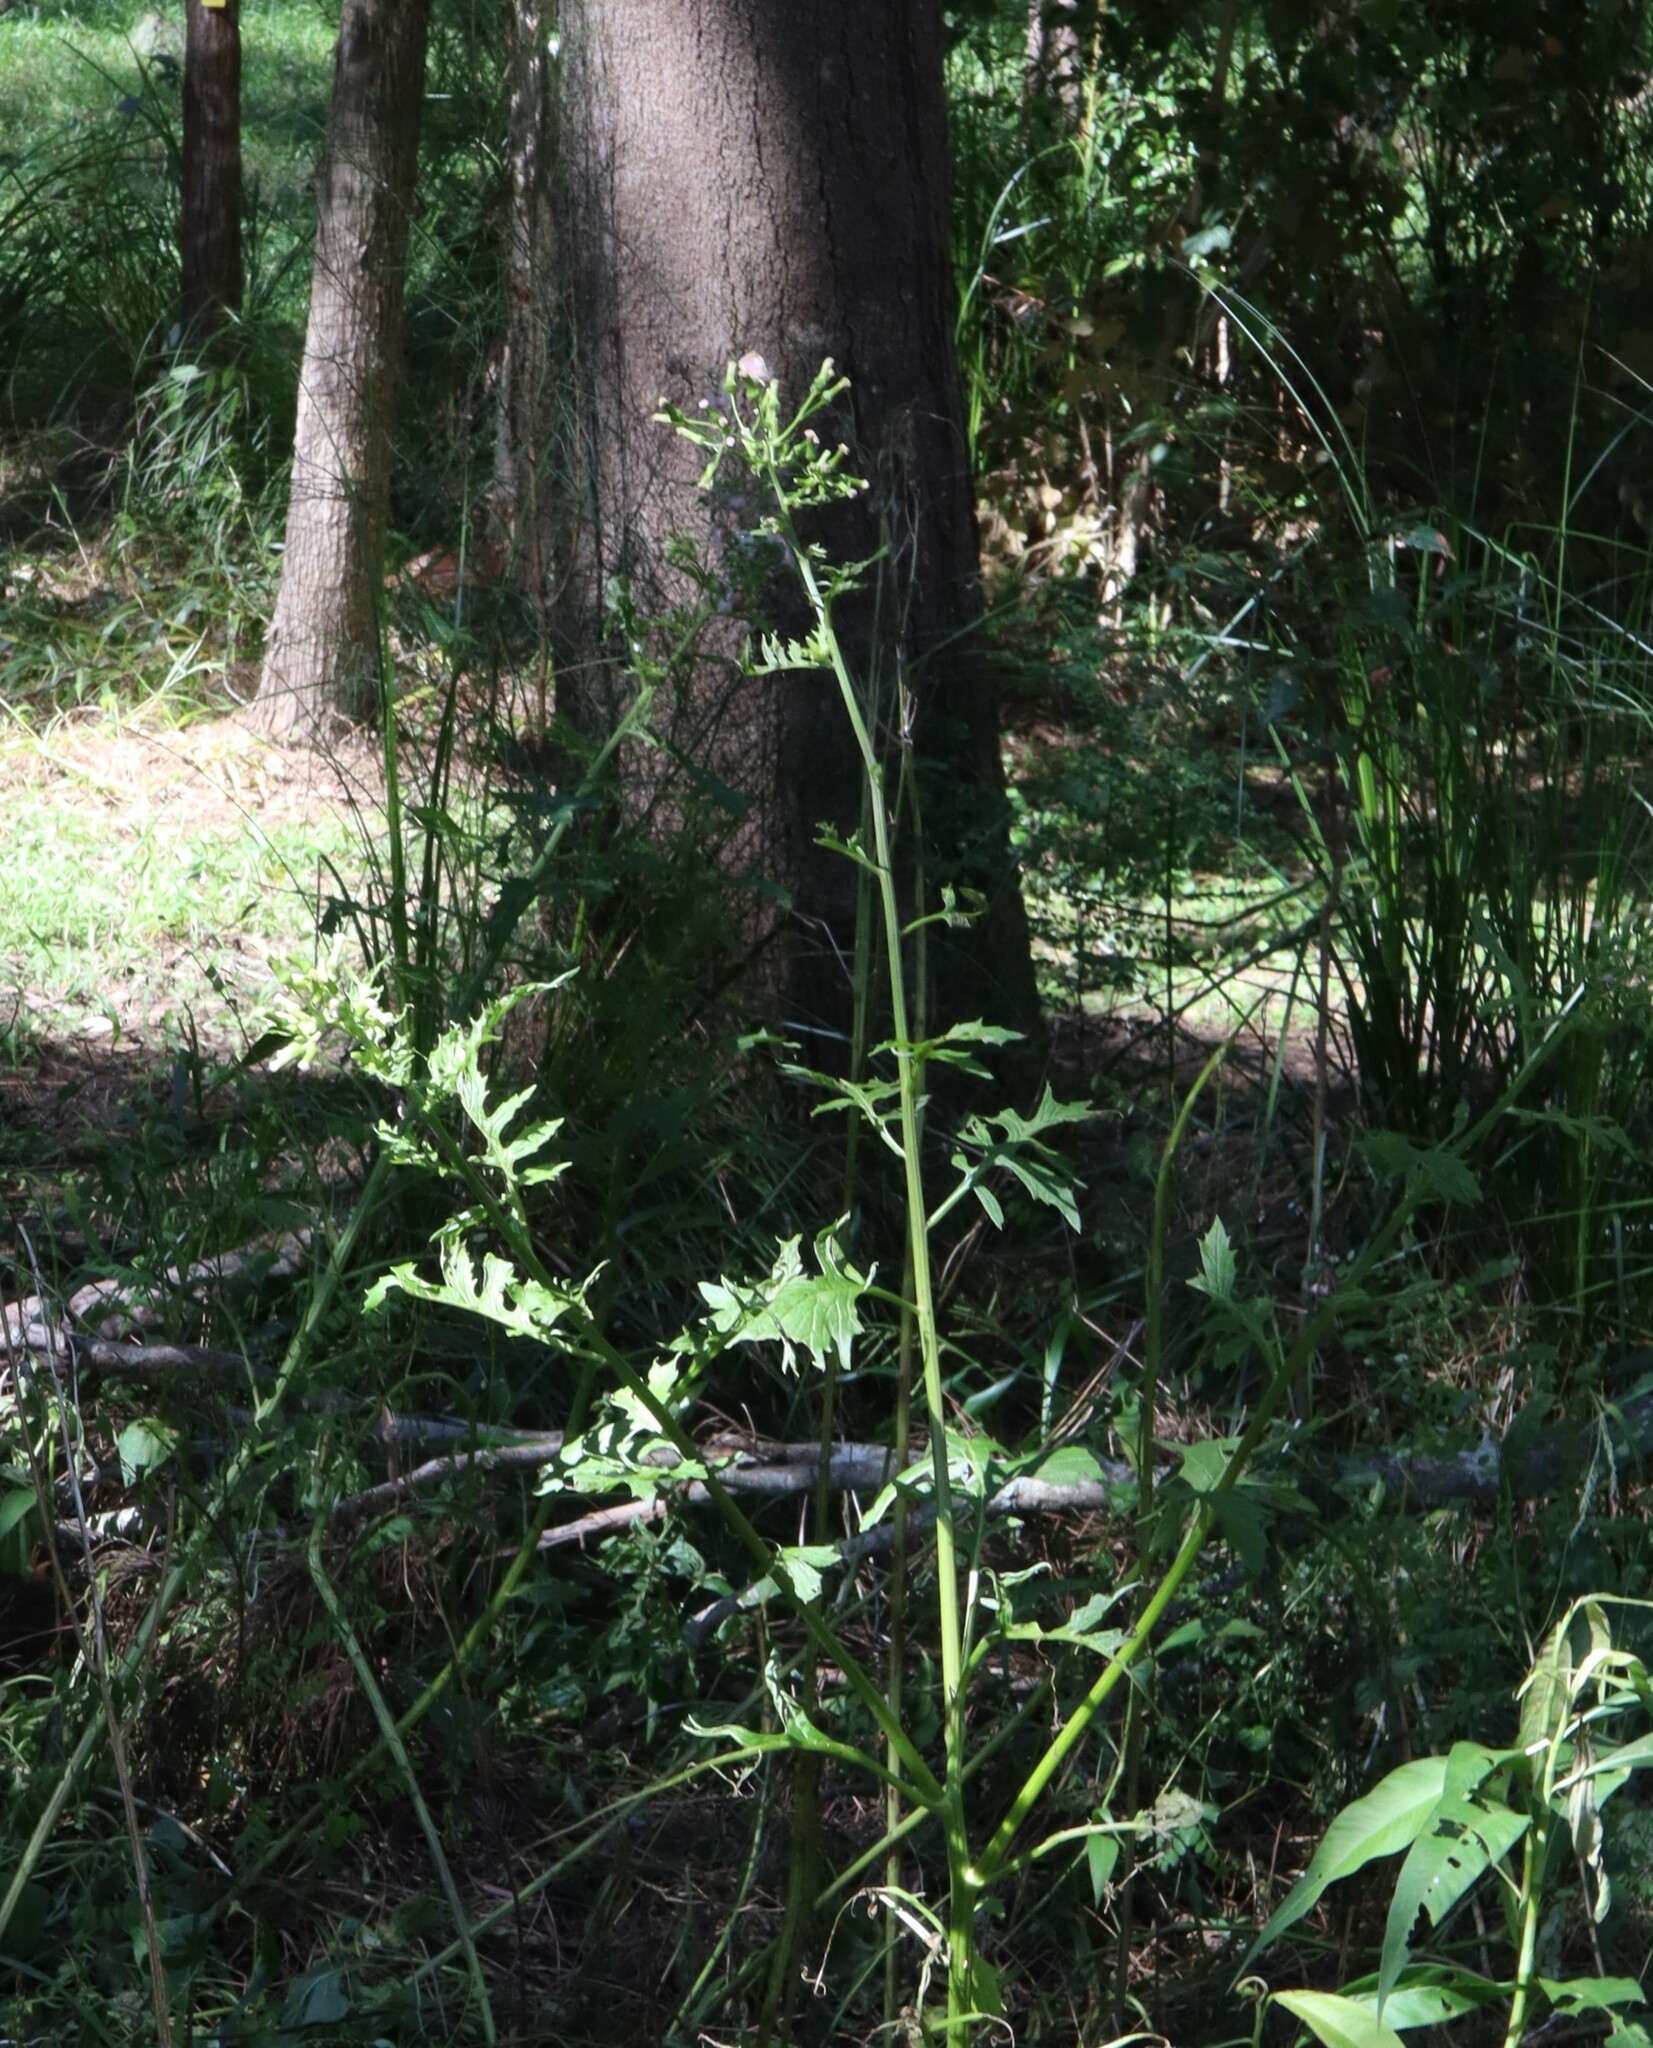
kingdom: Plantae
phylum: Tracheophyta
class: Magnoliopsida
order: Asterales
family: Asteraceae
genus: Erechtites
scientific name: Erechtites valerianifolius
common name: Tropical burnweed
